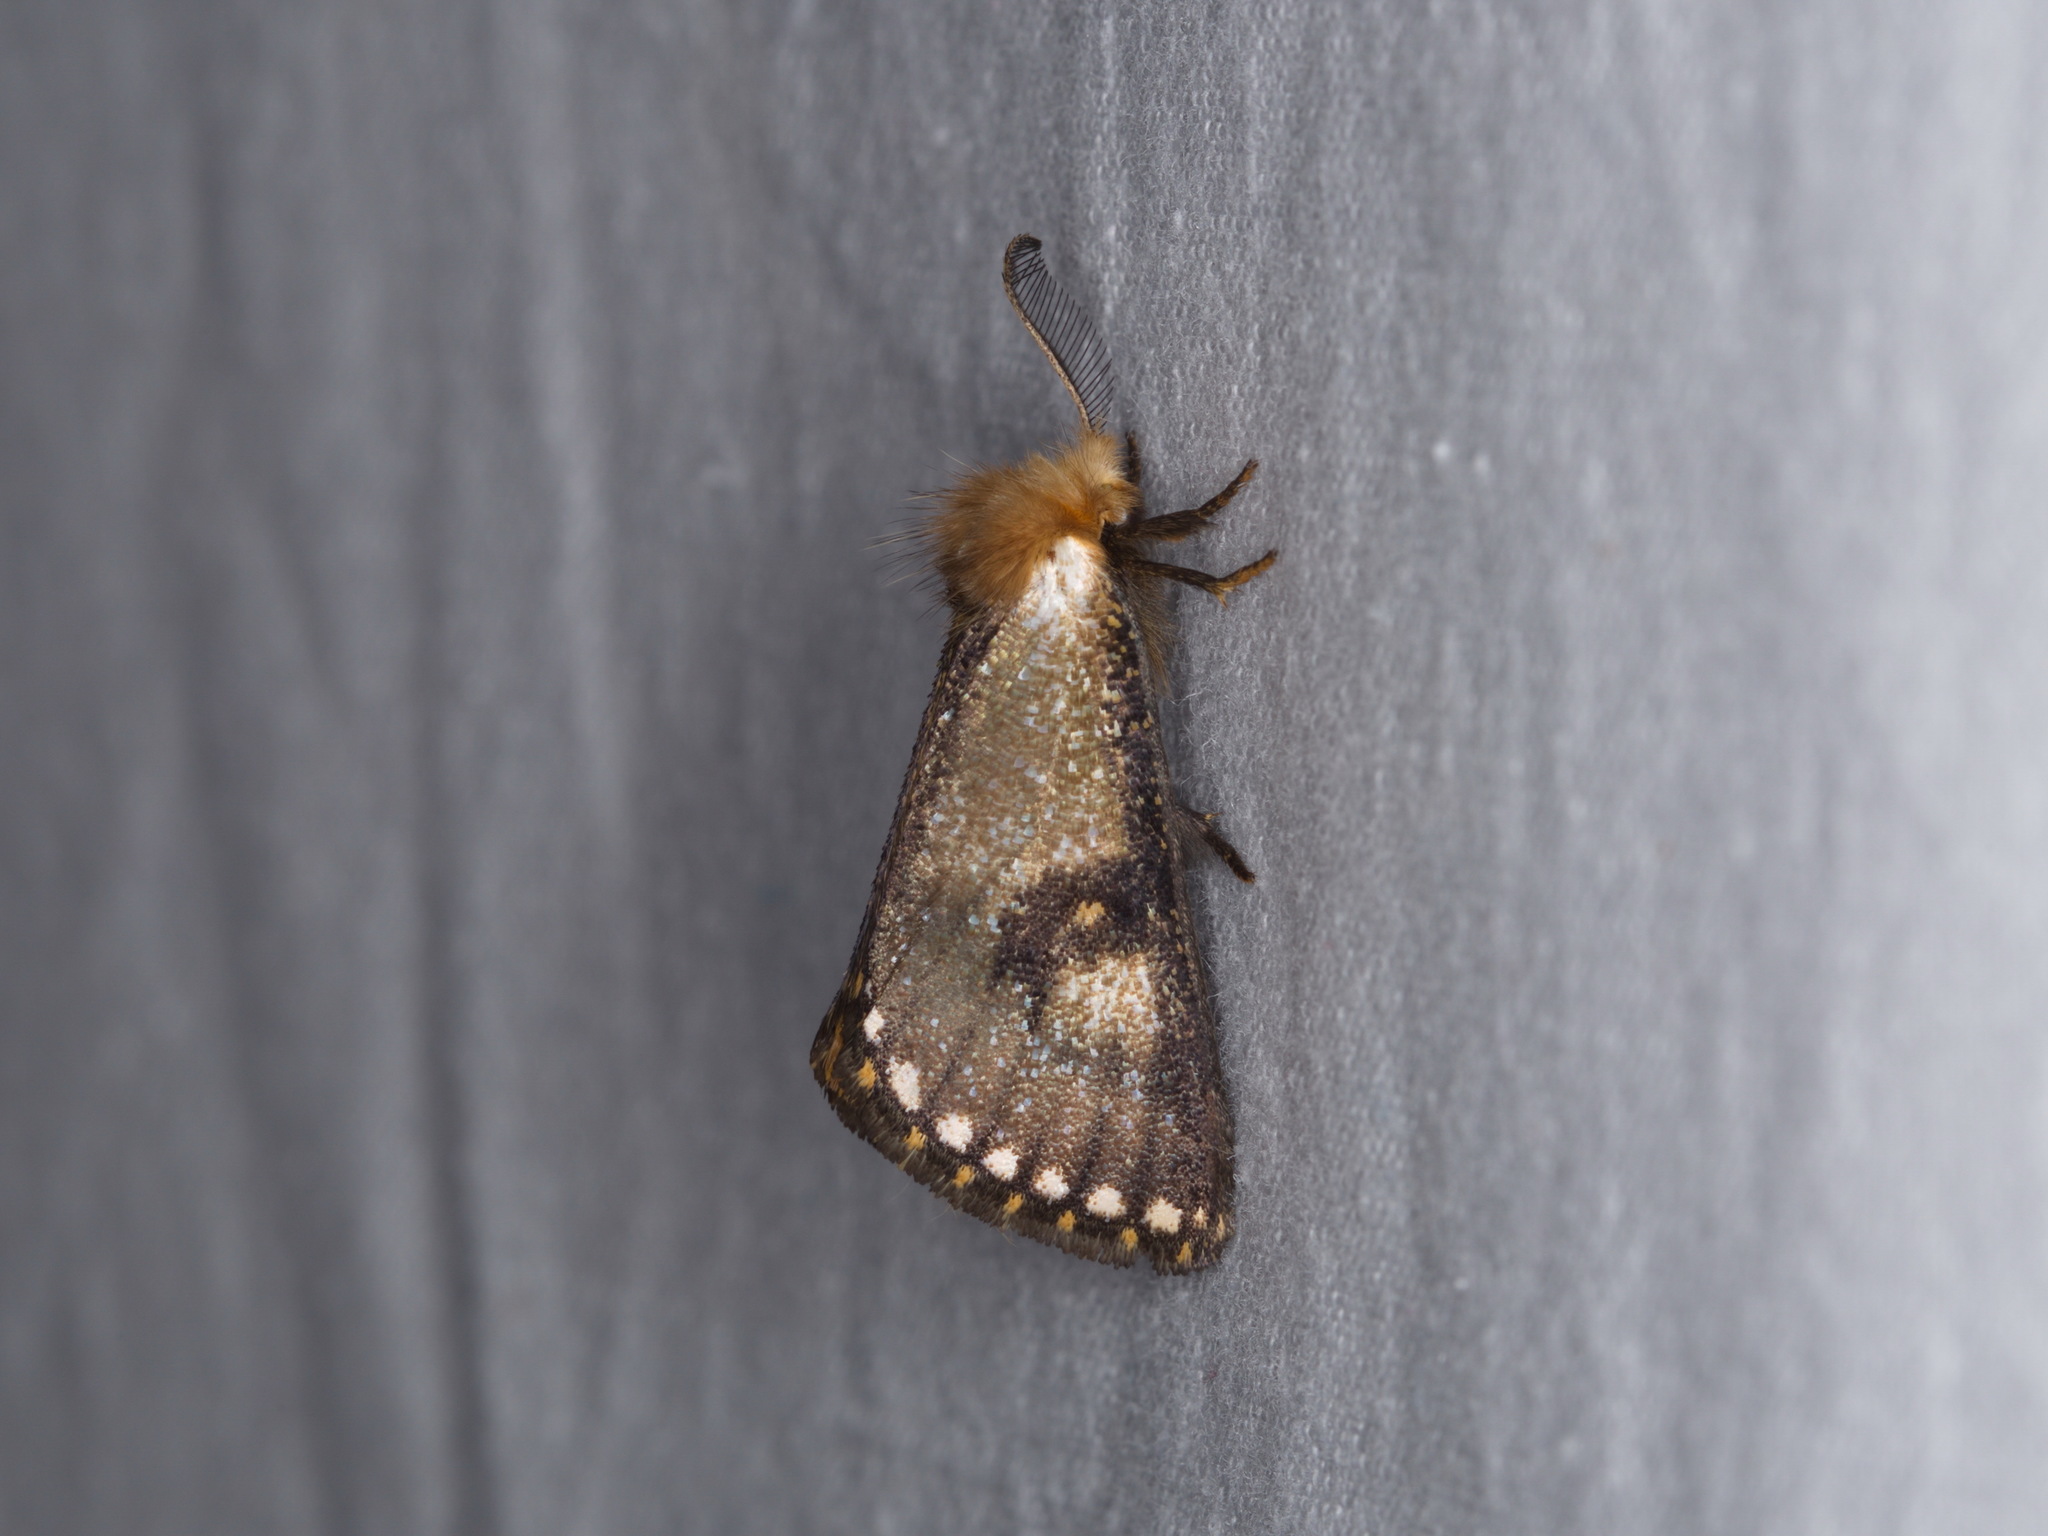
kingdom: Animalia
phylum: Arthropoda
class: Insecta
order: Lepidoptera
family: Notodontidae
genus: Epicoma
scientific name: Epicoma contristis
